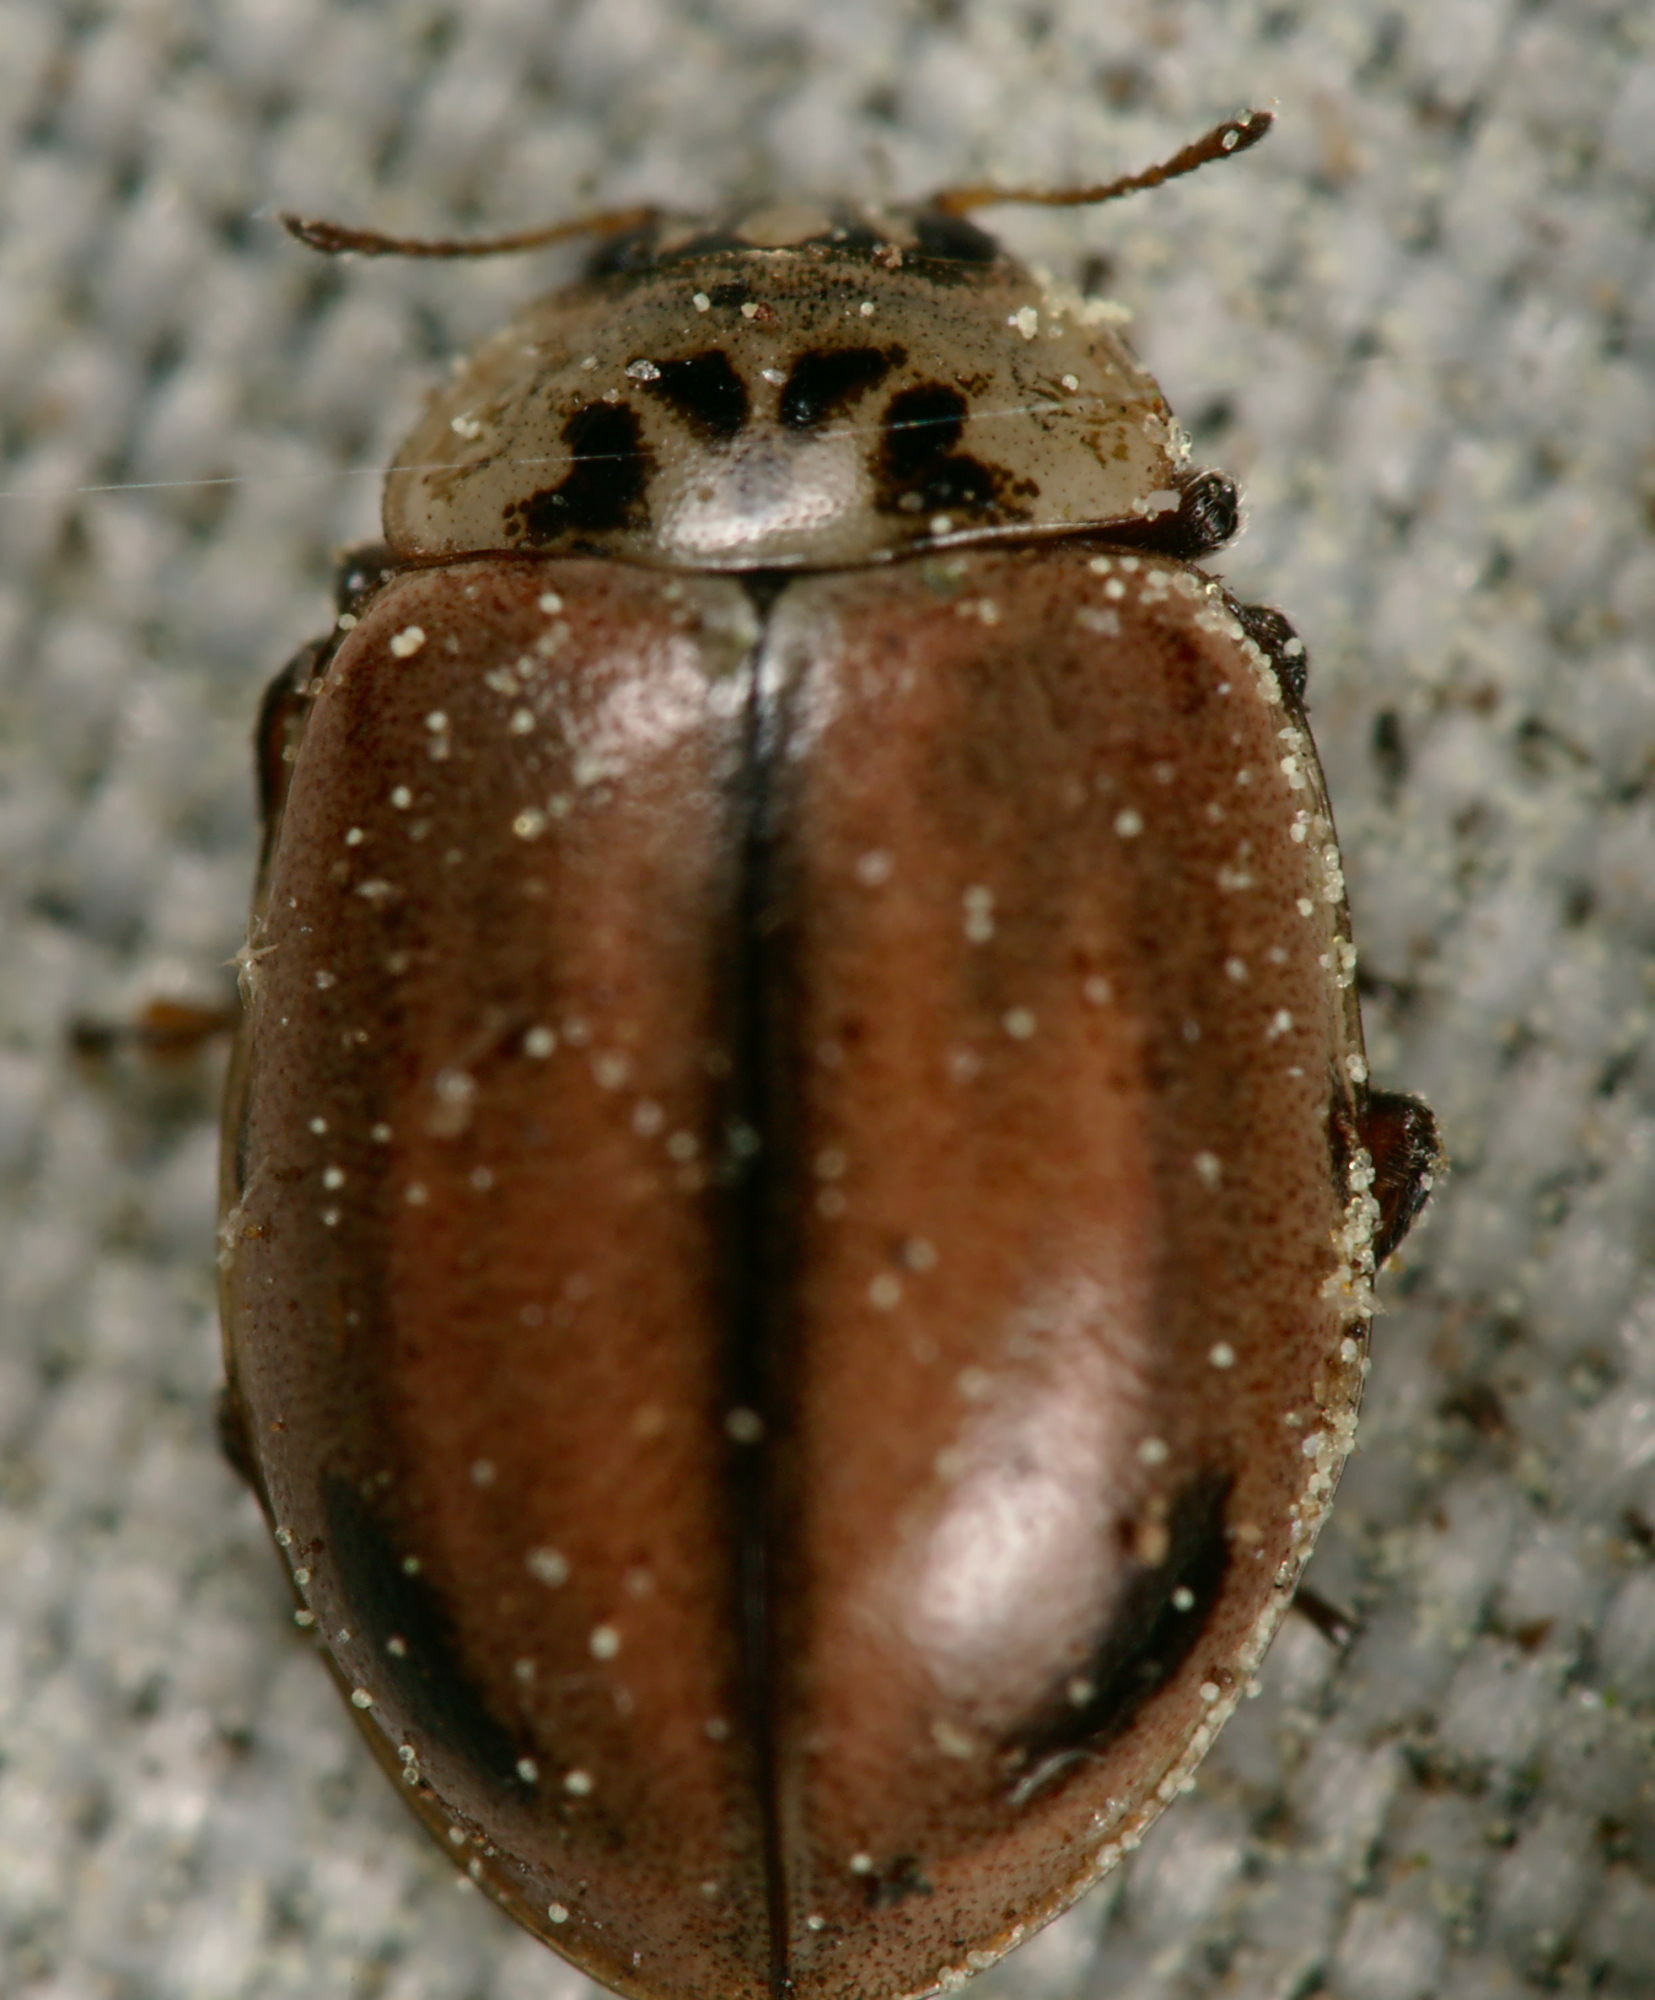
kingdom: Animalia
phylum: Arthropoda
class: Insecta
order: Coleoptera
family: Coccinellidae
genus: Aphidecta
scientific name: Aphidecta obliterata
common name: Larch ladybird
